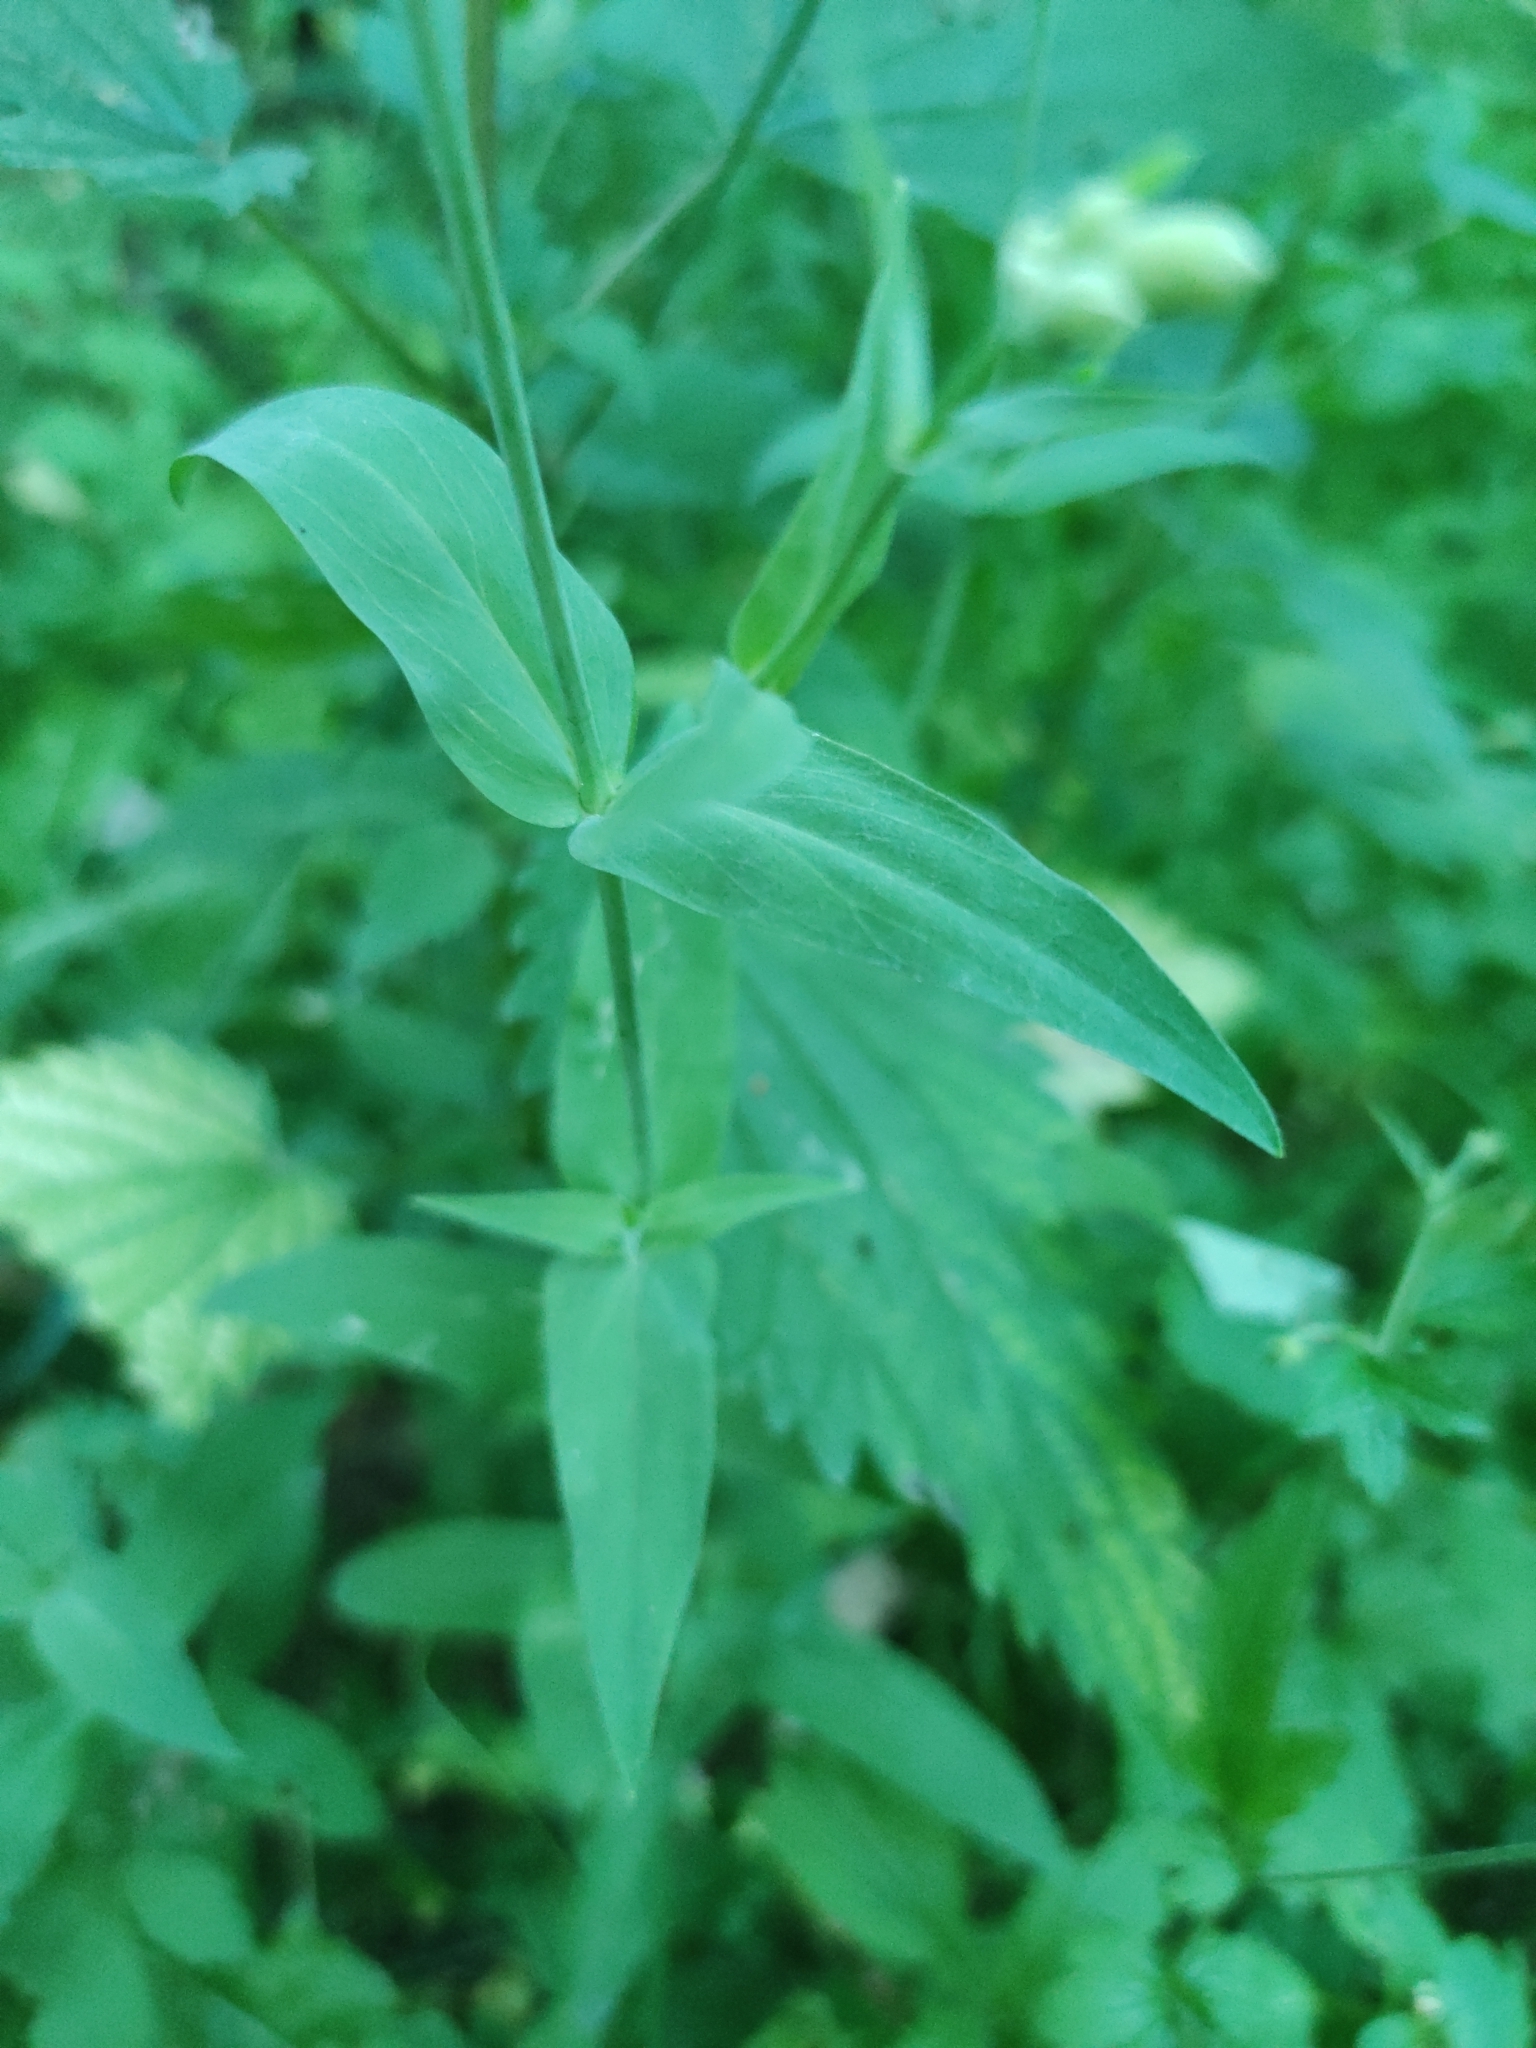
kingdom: Plantae
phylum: Tracheophyta
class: Magnoliopsida
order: Caryophyllales
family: Caryophyllaceae
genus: Silene
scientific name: Silene vulgaris
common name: Bladder campion
